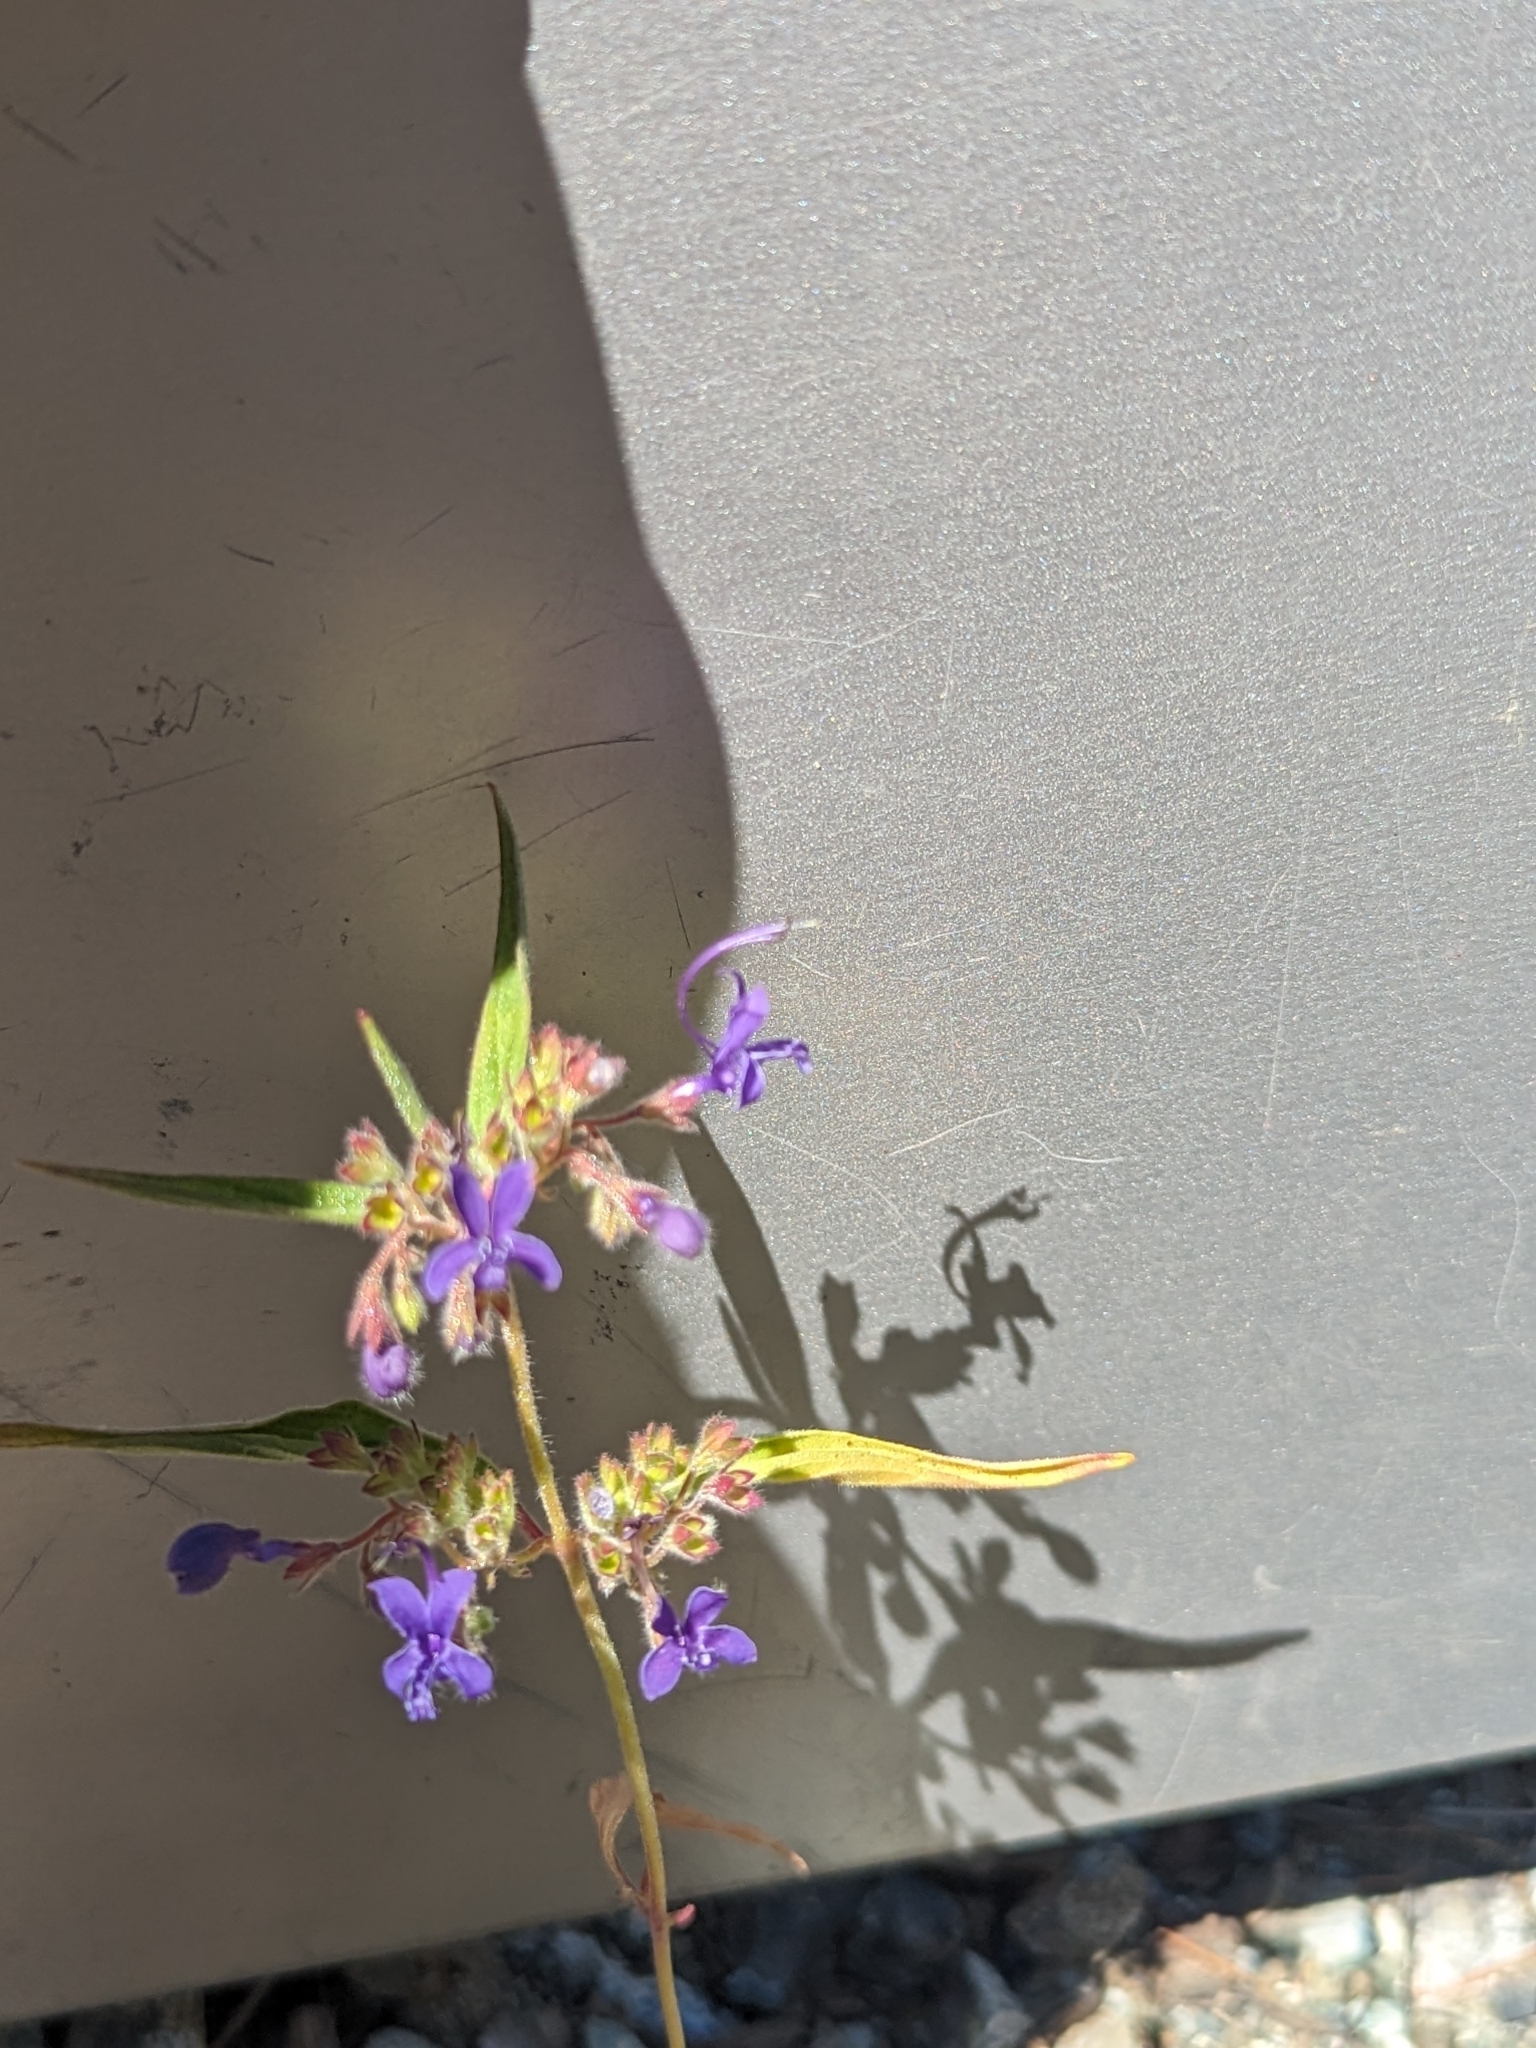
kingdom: Plantae
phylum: Tracheophyta
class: Magnoliopsida
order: Lamiales
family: Lamiaceae
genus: Trichostema
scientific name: Trichostema laxum
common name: Turpentine weed
